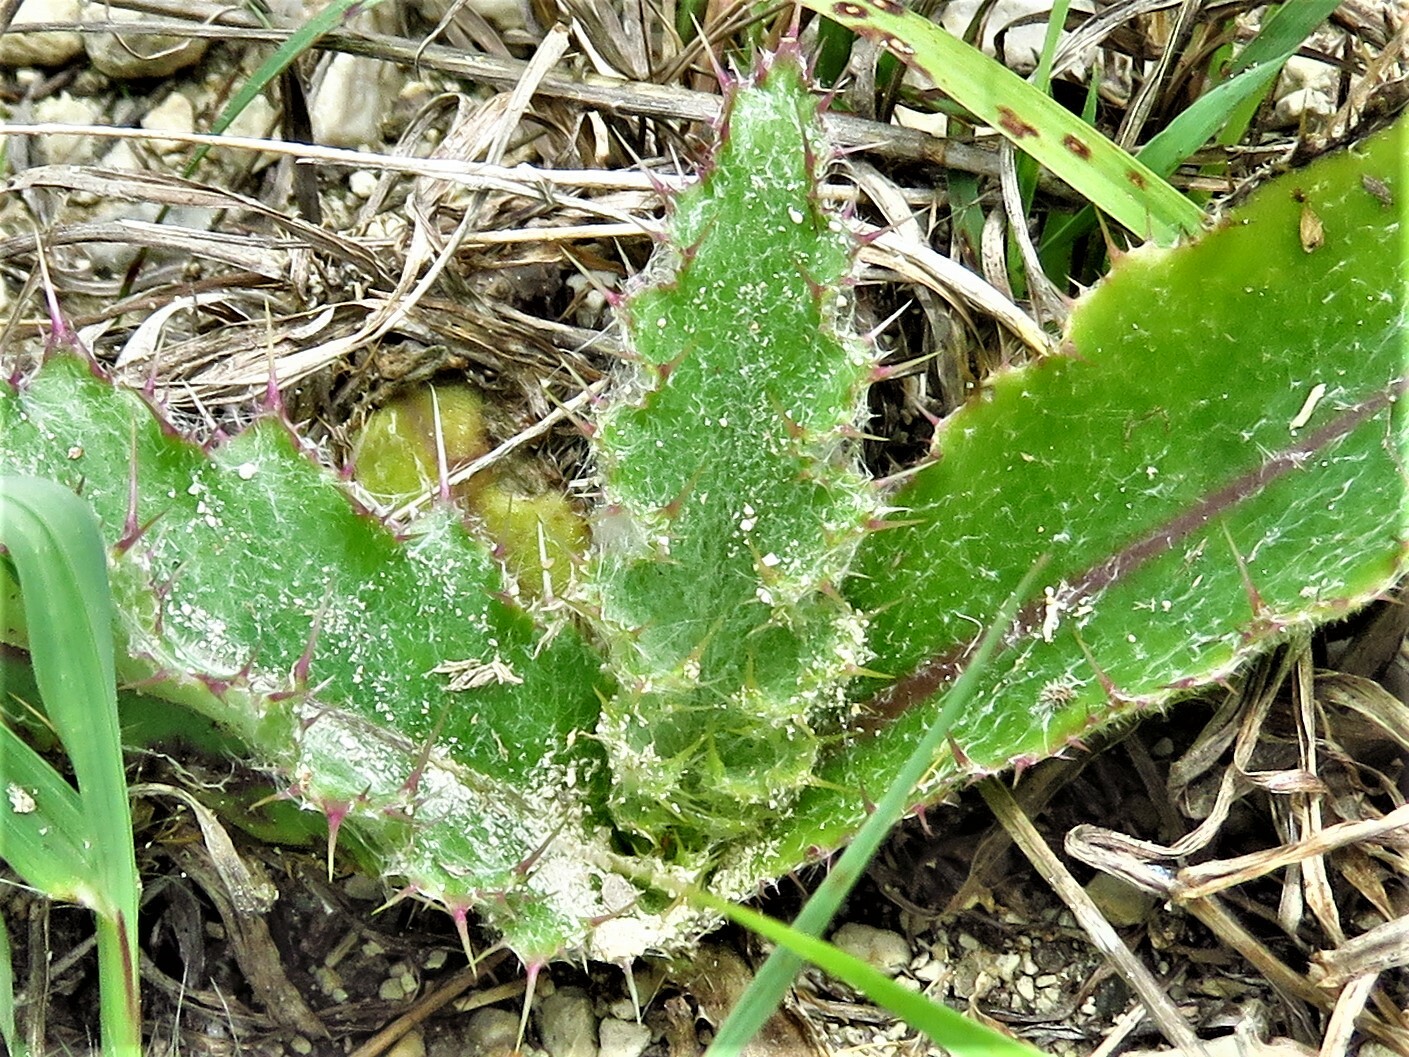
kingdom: Plantae
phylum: Tracheophyta
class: Magnoliopsida
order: Asterales
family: Asteraceae
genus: Cirsium
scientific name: Cirsium horridulum
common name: Bristly thistle
